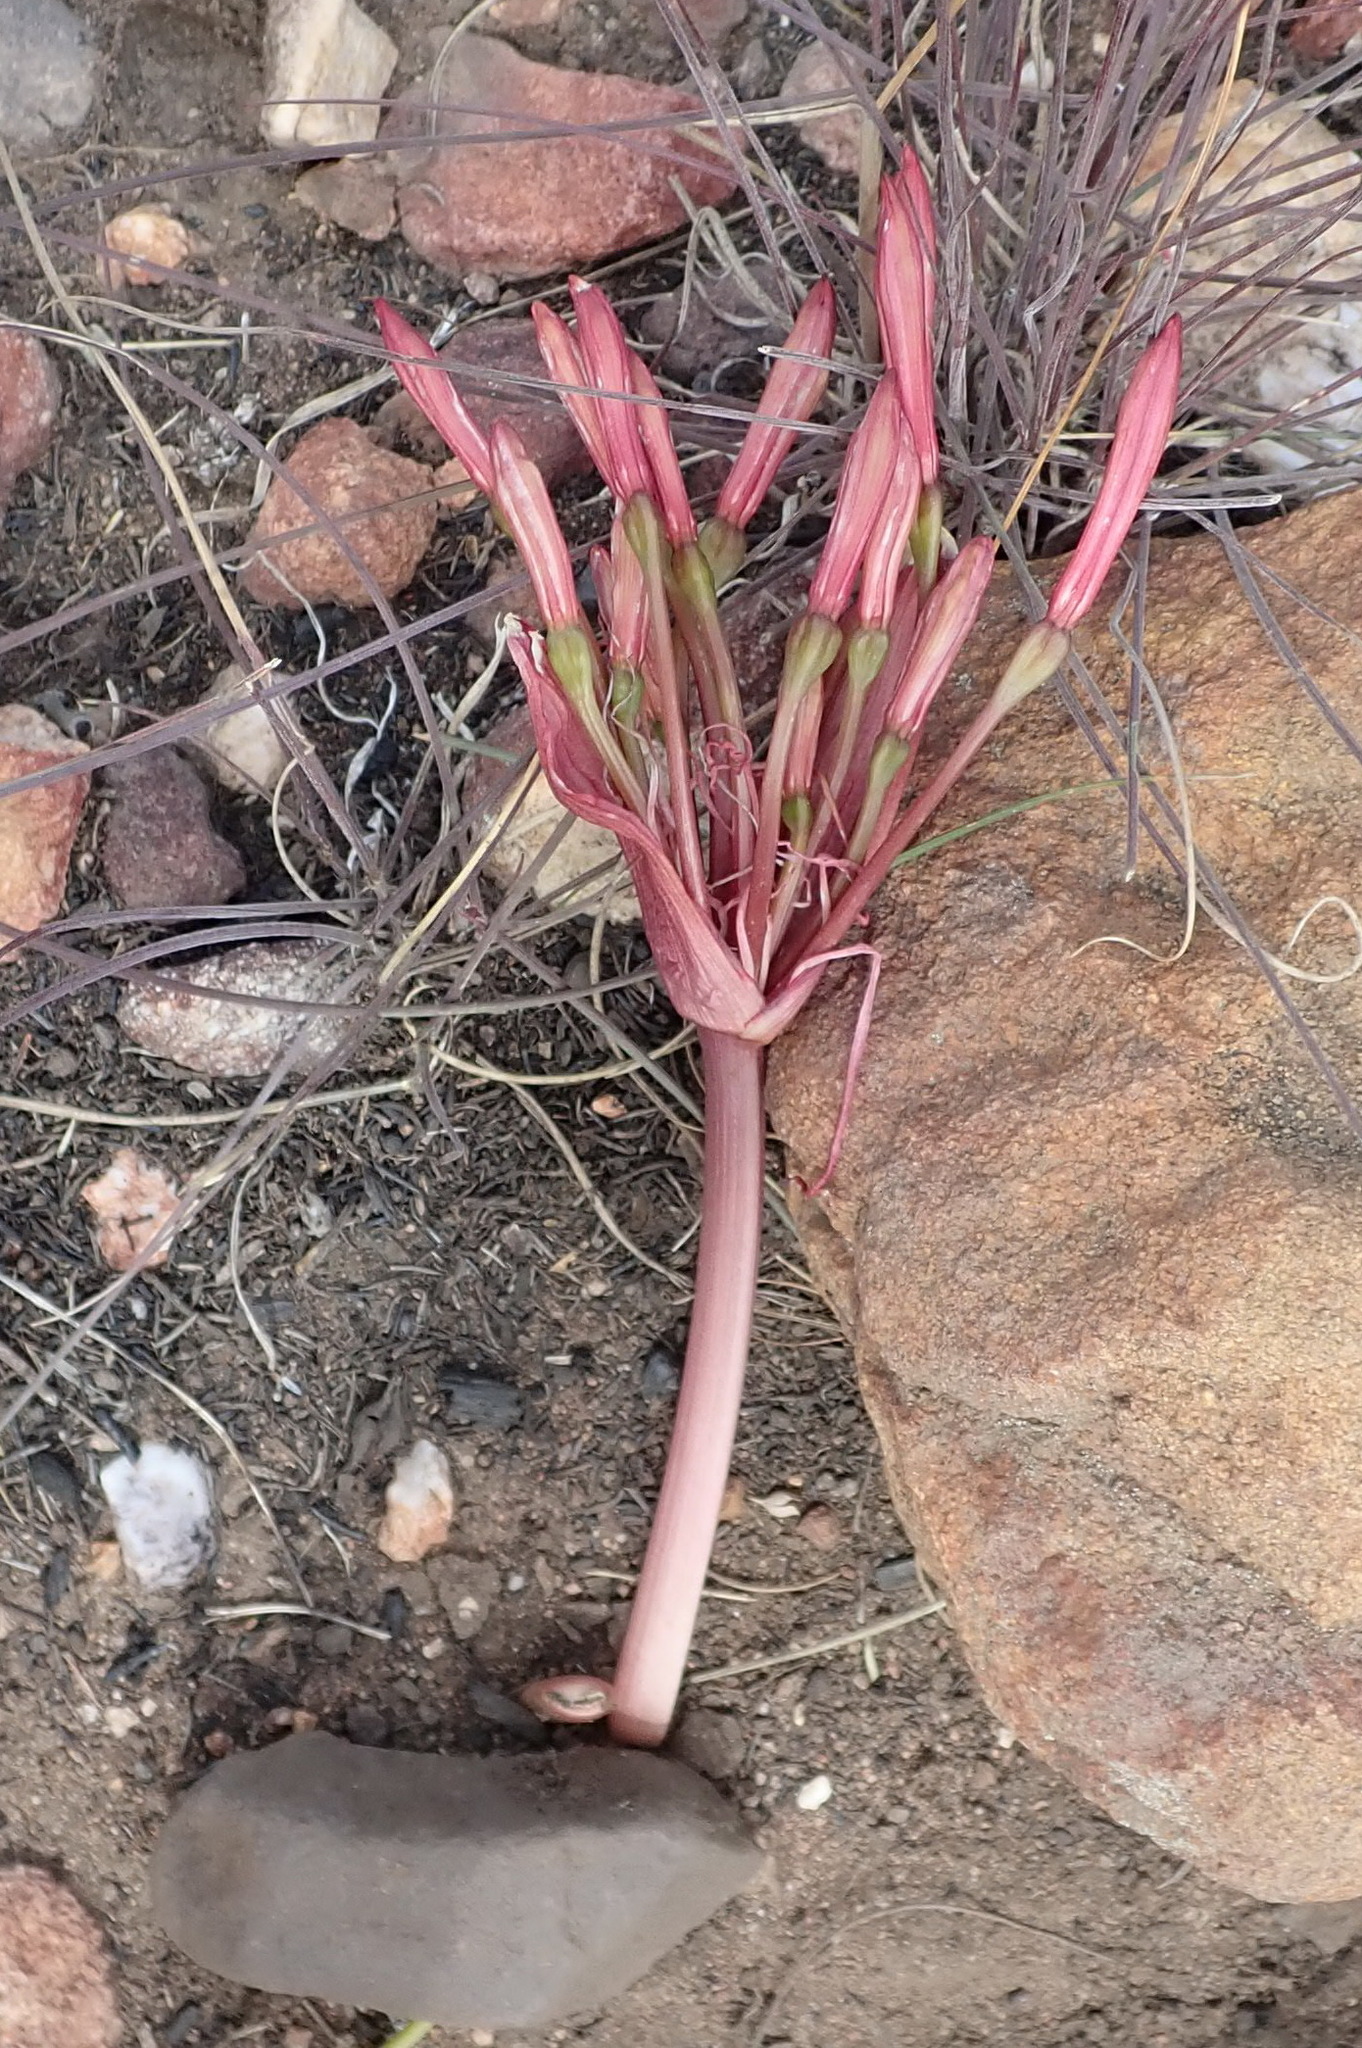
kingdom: Plantae
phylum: Tracheophyta
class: Liliopsida
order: Asparagales
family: Amaryllidaceae
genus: Brunsvigia
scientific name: Brunsvigia nervosa
